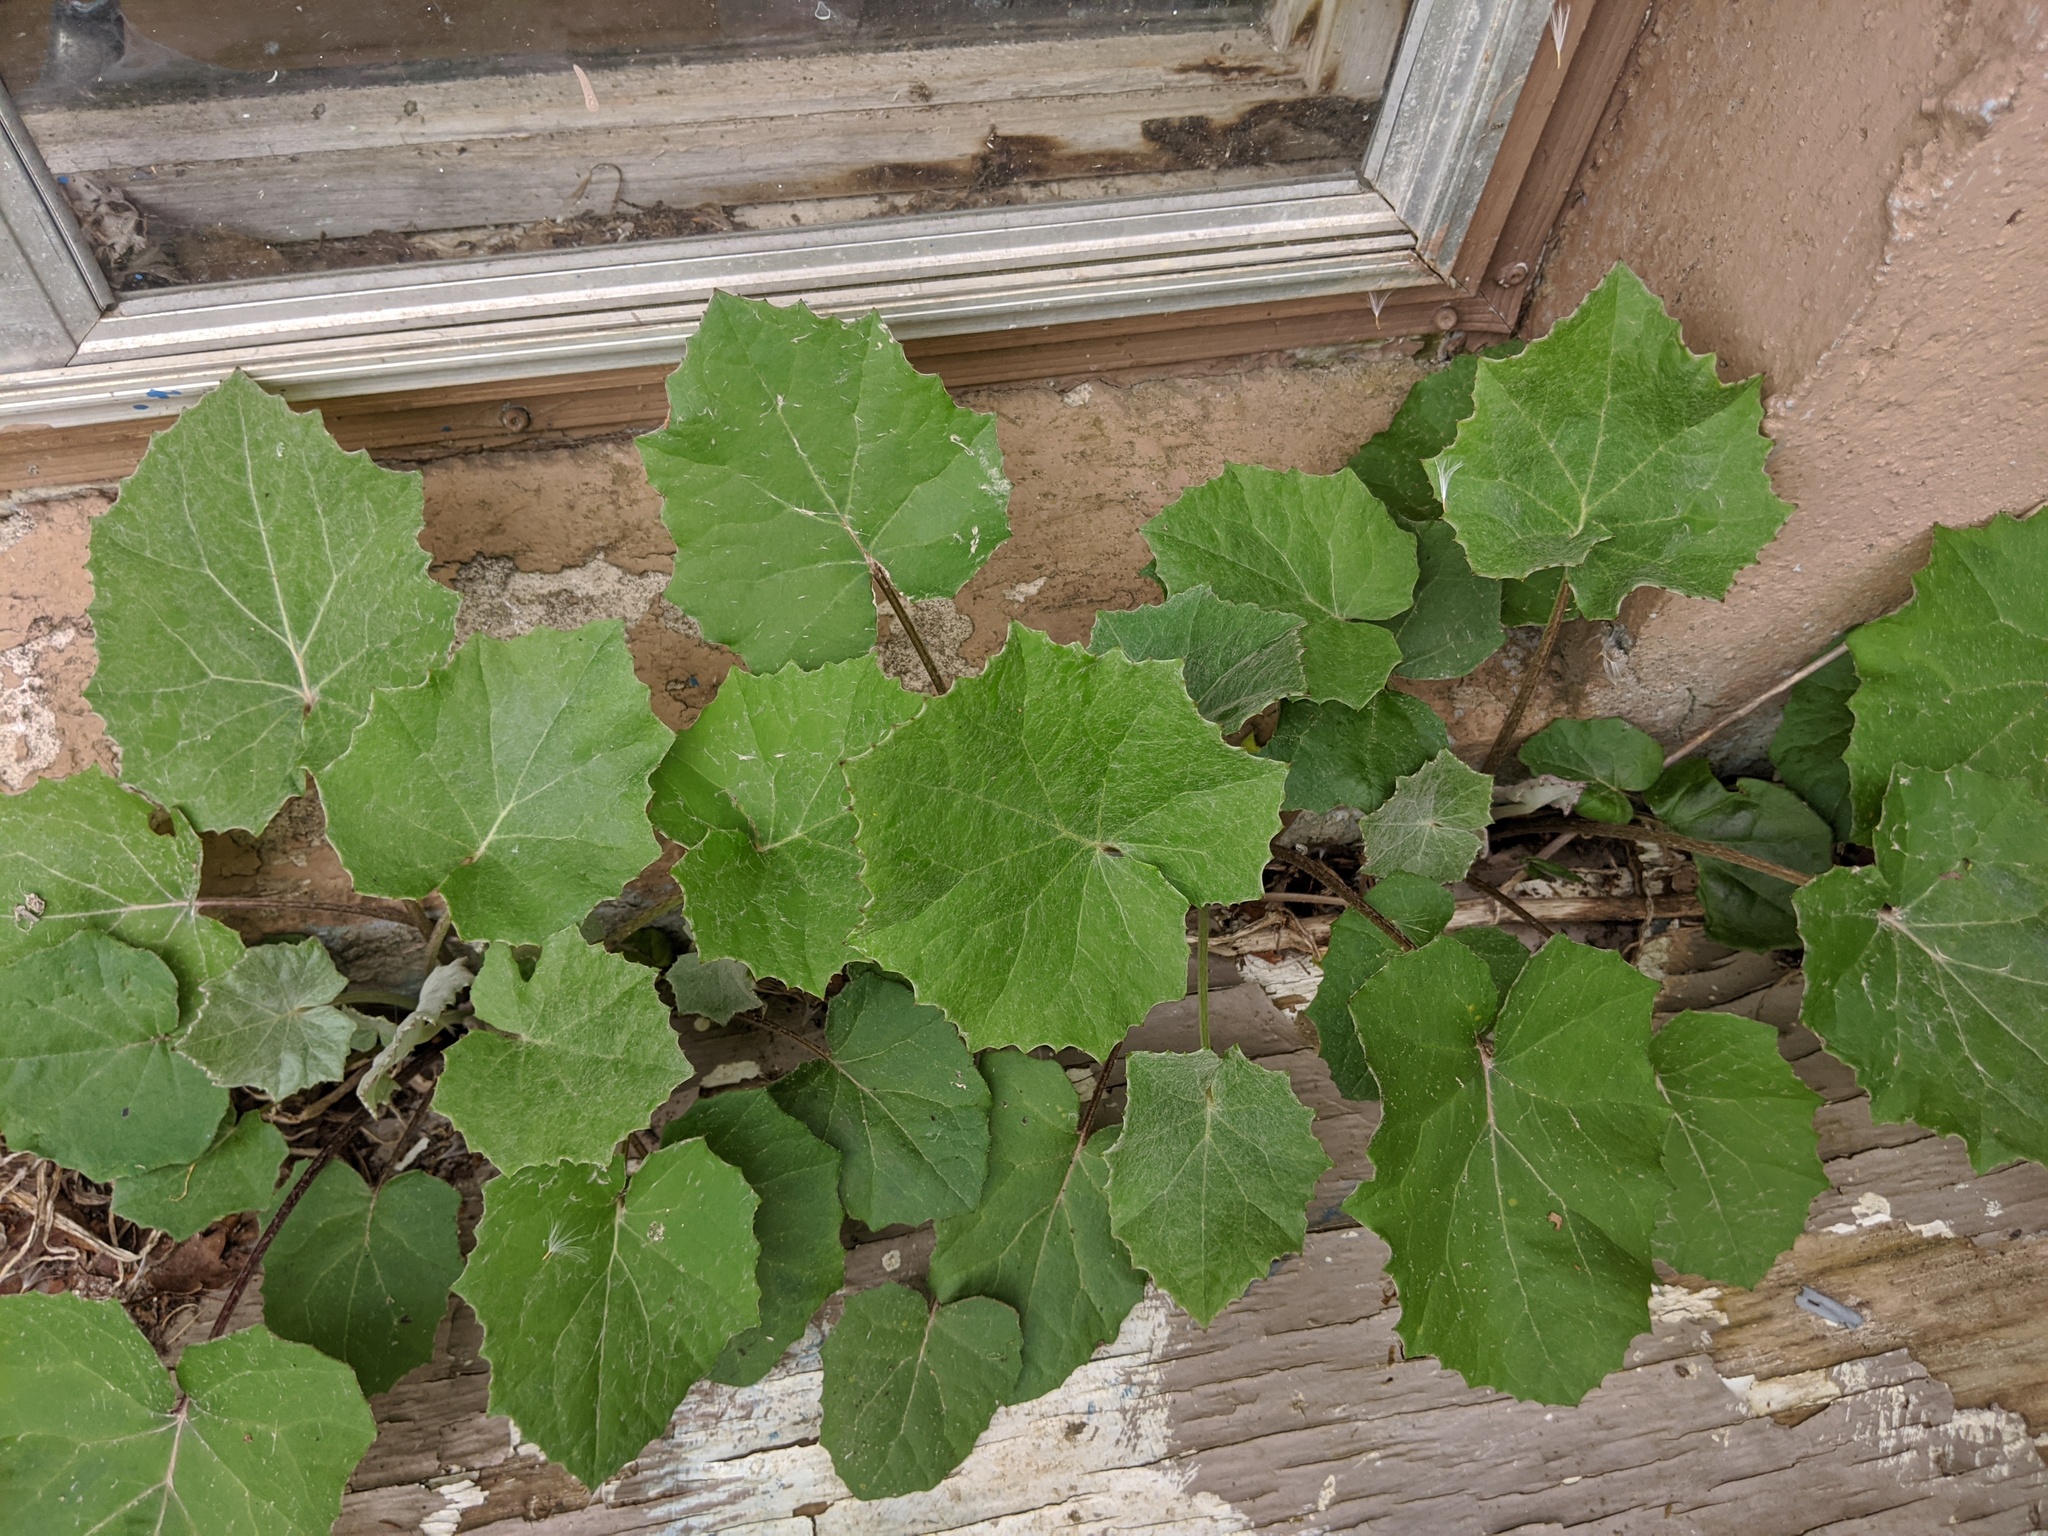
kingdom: Plantae
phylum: Tracheophyta
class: Magnoliopsida
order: Asterales
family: Asteraceae
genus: Tussilago
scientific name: Tussilago farfara
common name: Coltsfoot
